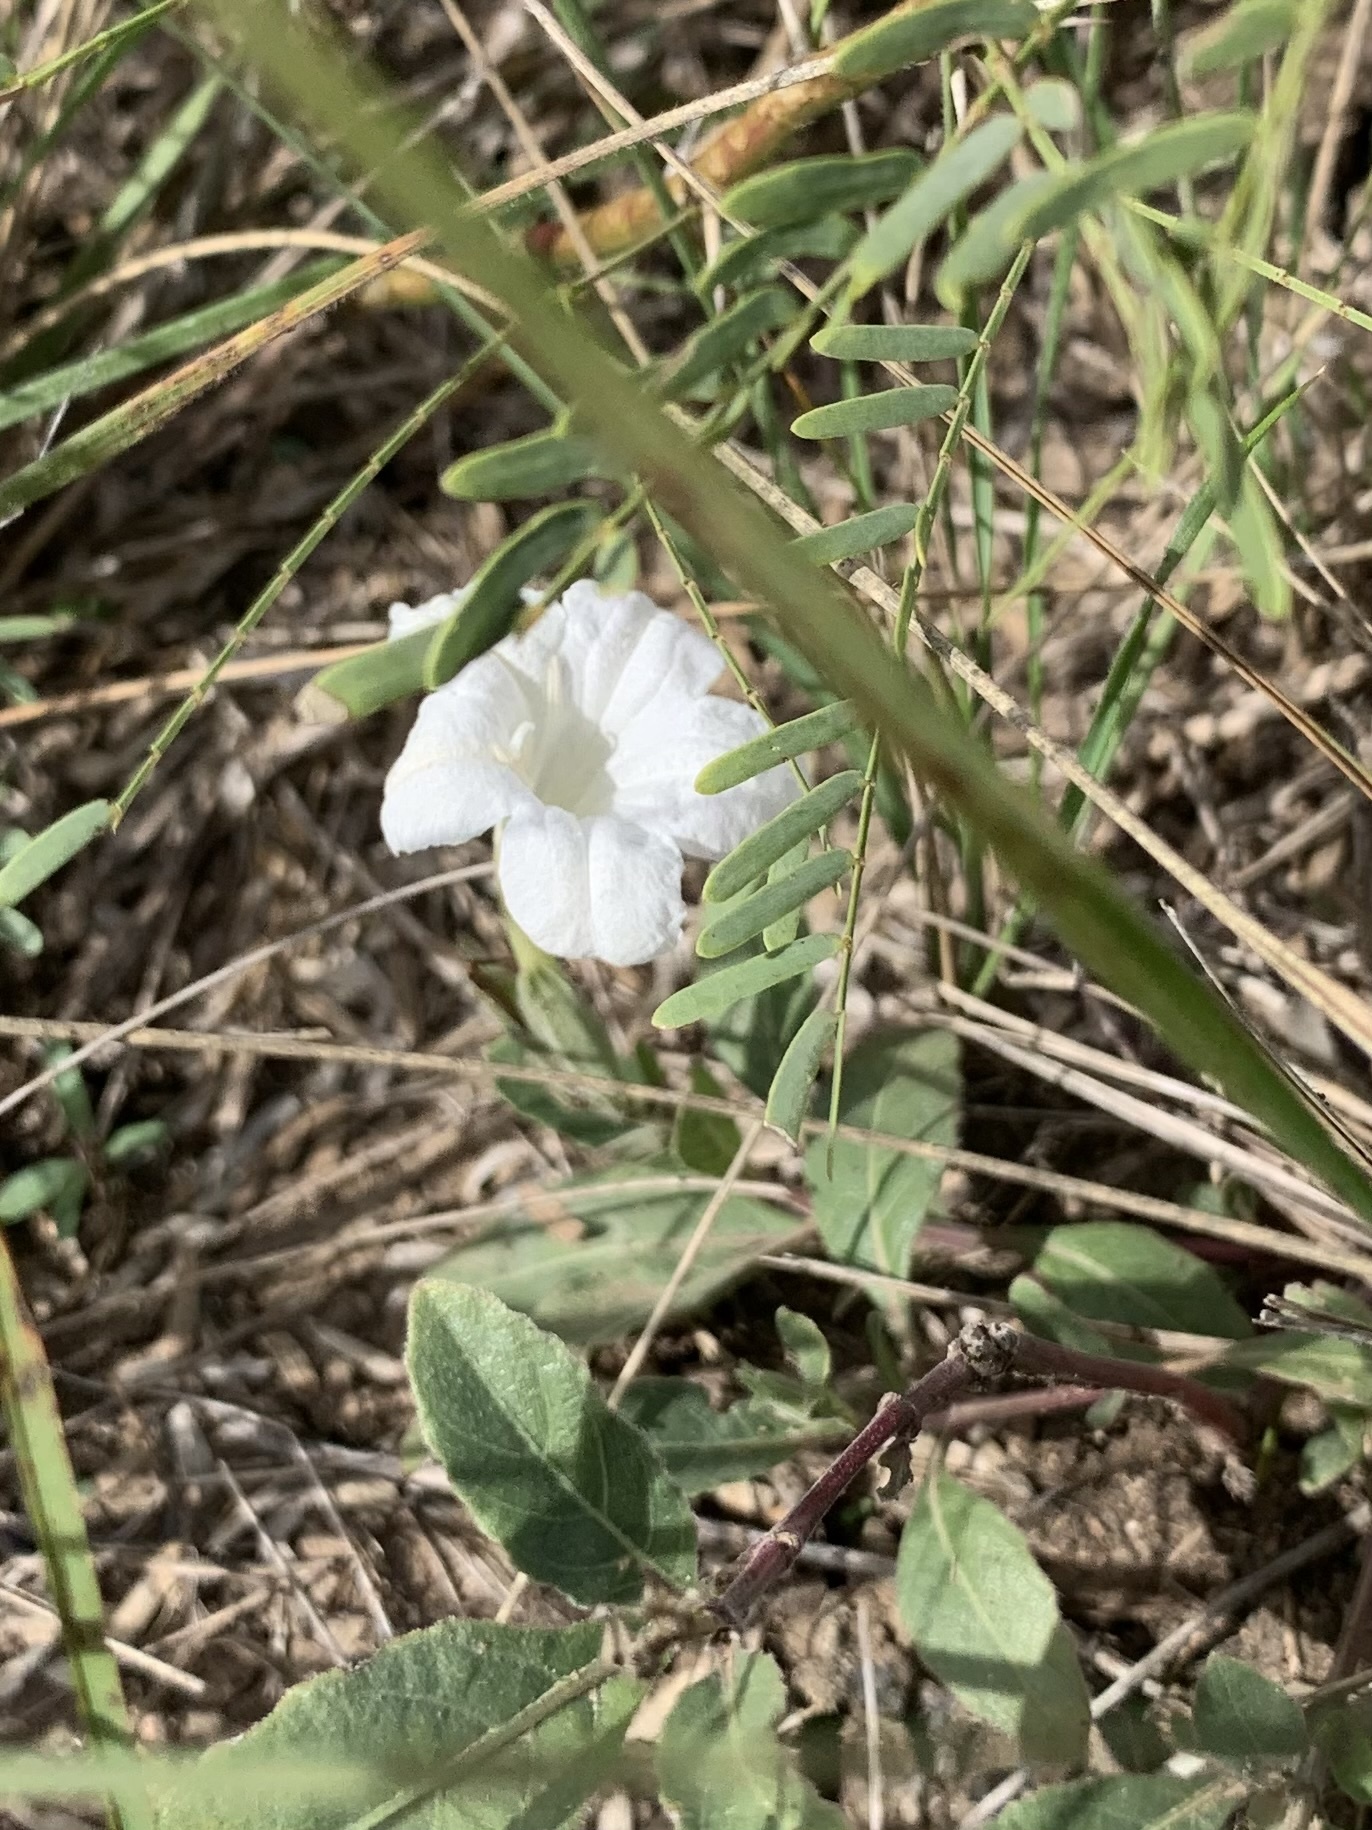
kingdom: Plantae
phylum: Tracheophyta
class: Magnoliopsida
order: Lamiales
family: Acanthaceae
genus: Ruellia
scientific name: Ruellia metziae
